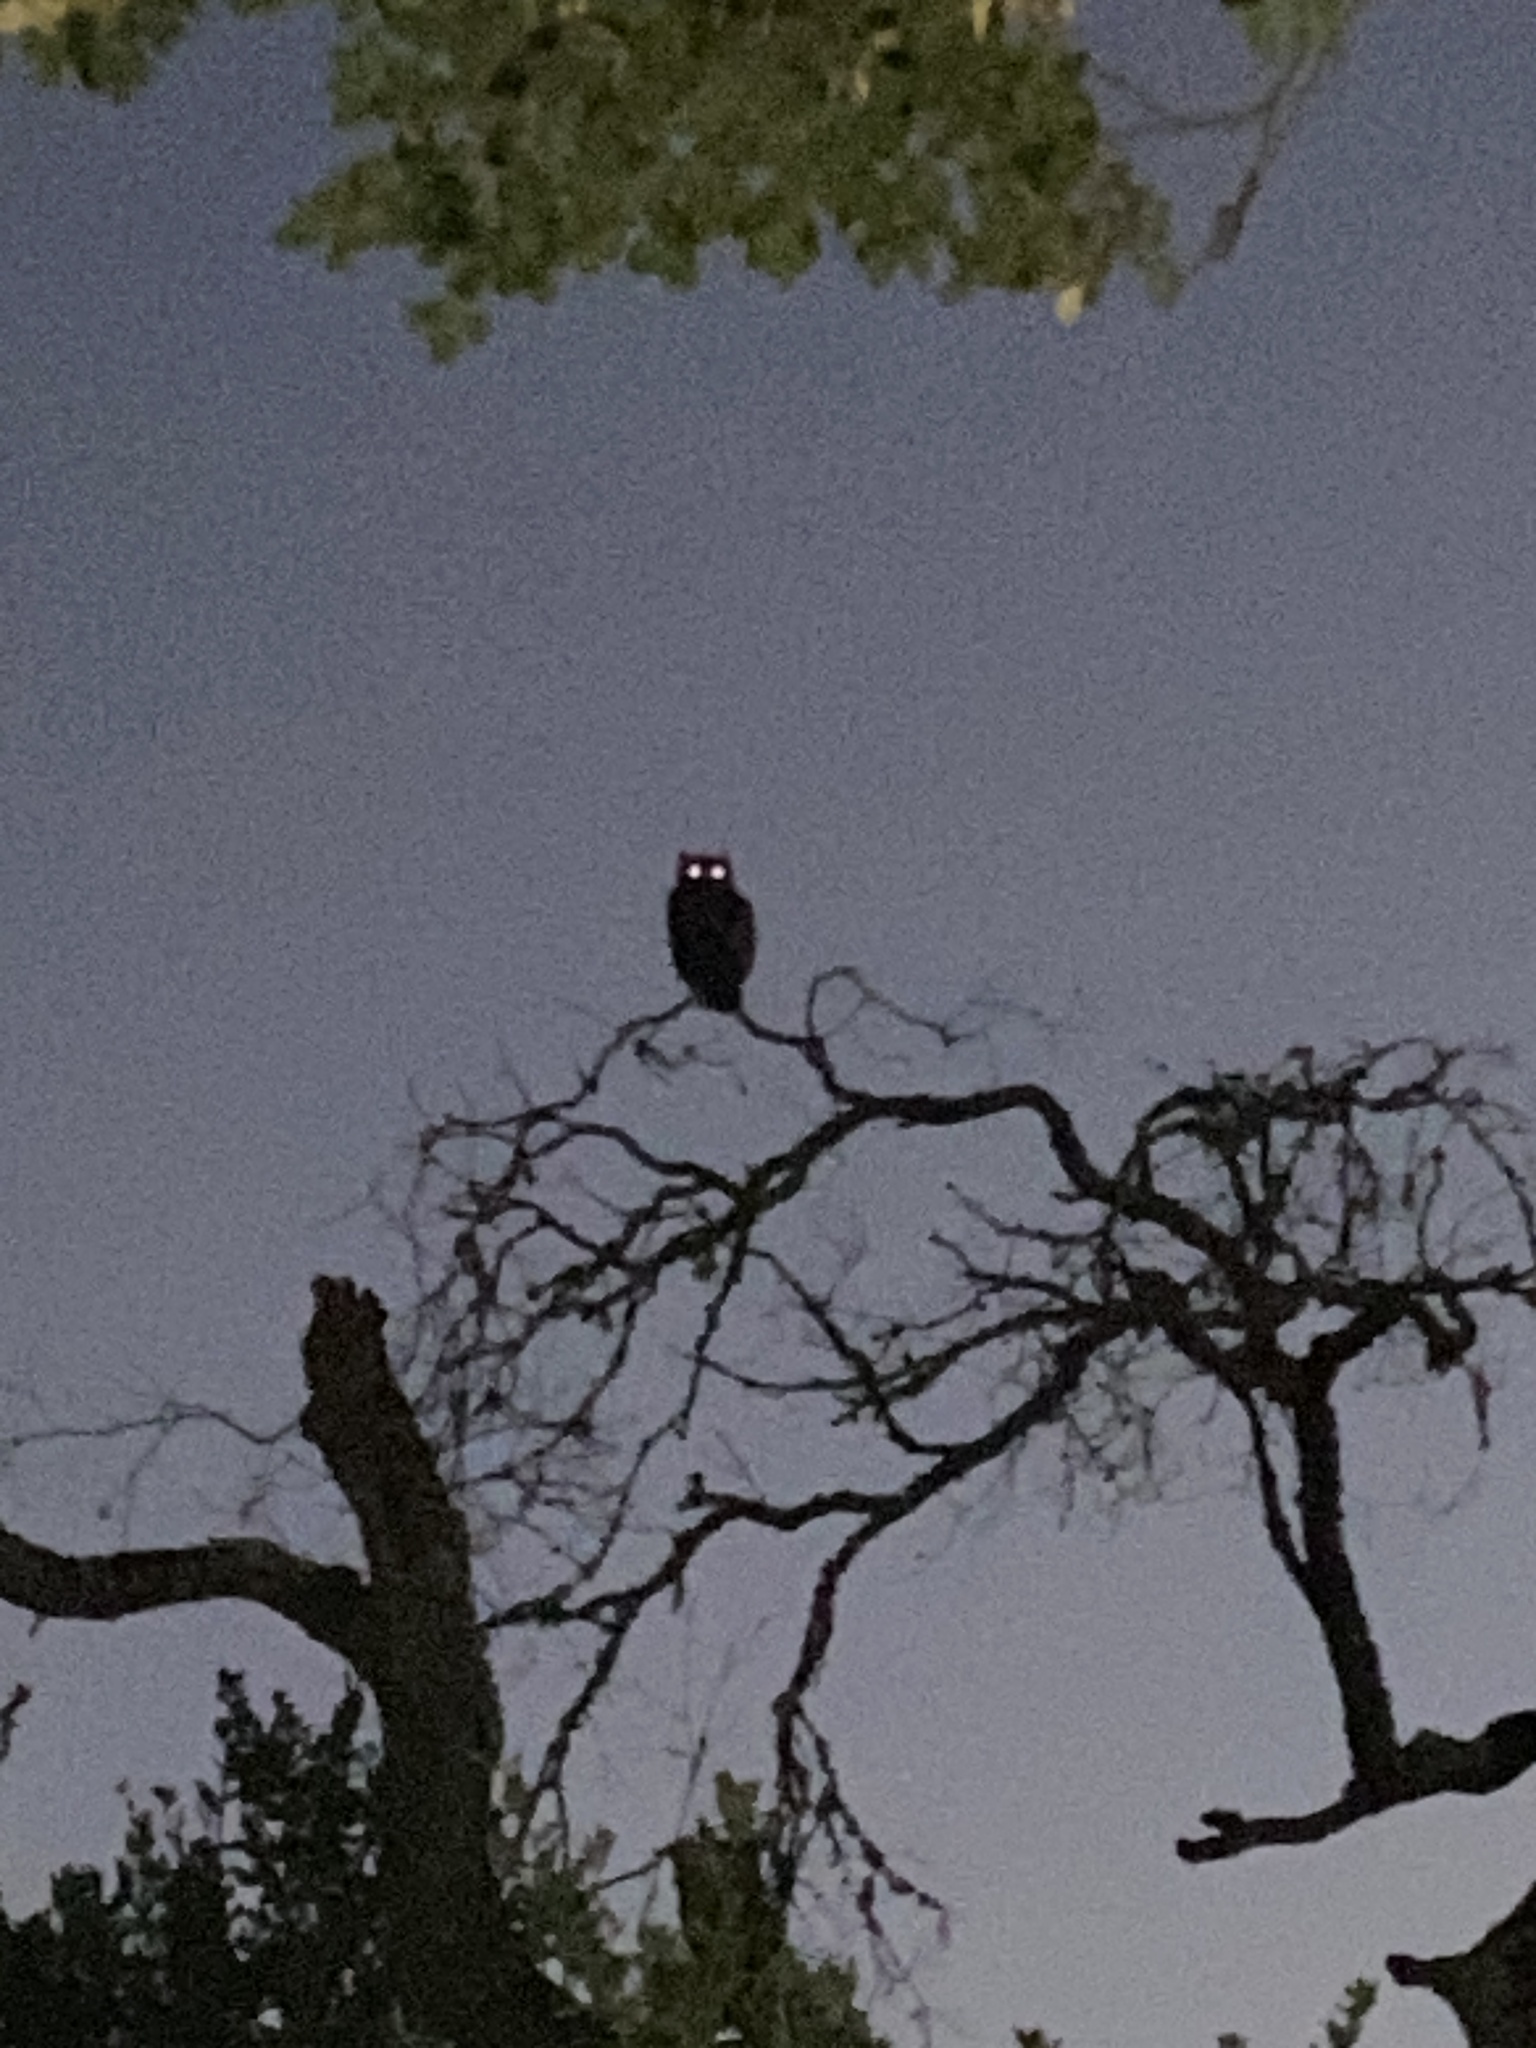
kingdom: Animalia
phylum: Chordata
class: Aves
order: Strigiformes
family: Strigidae
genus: Bubo
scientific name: Bubo virginianus
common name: Great horned owl
